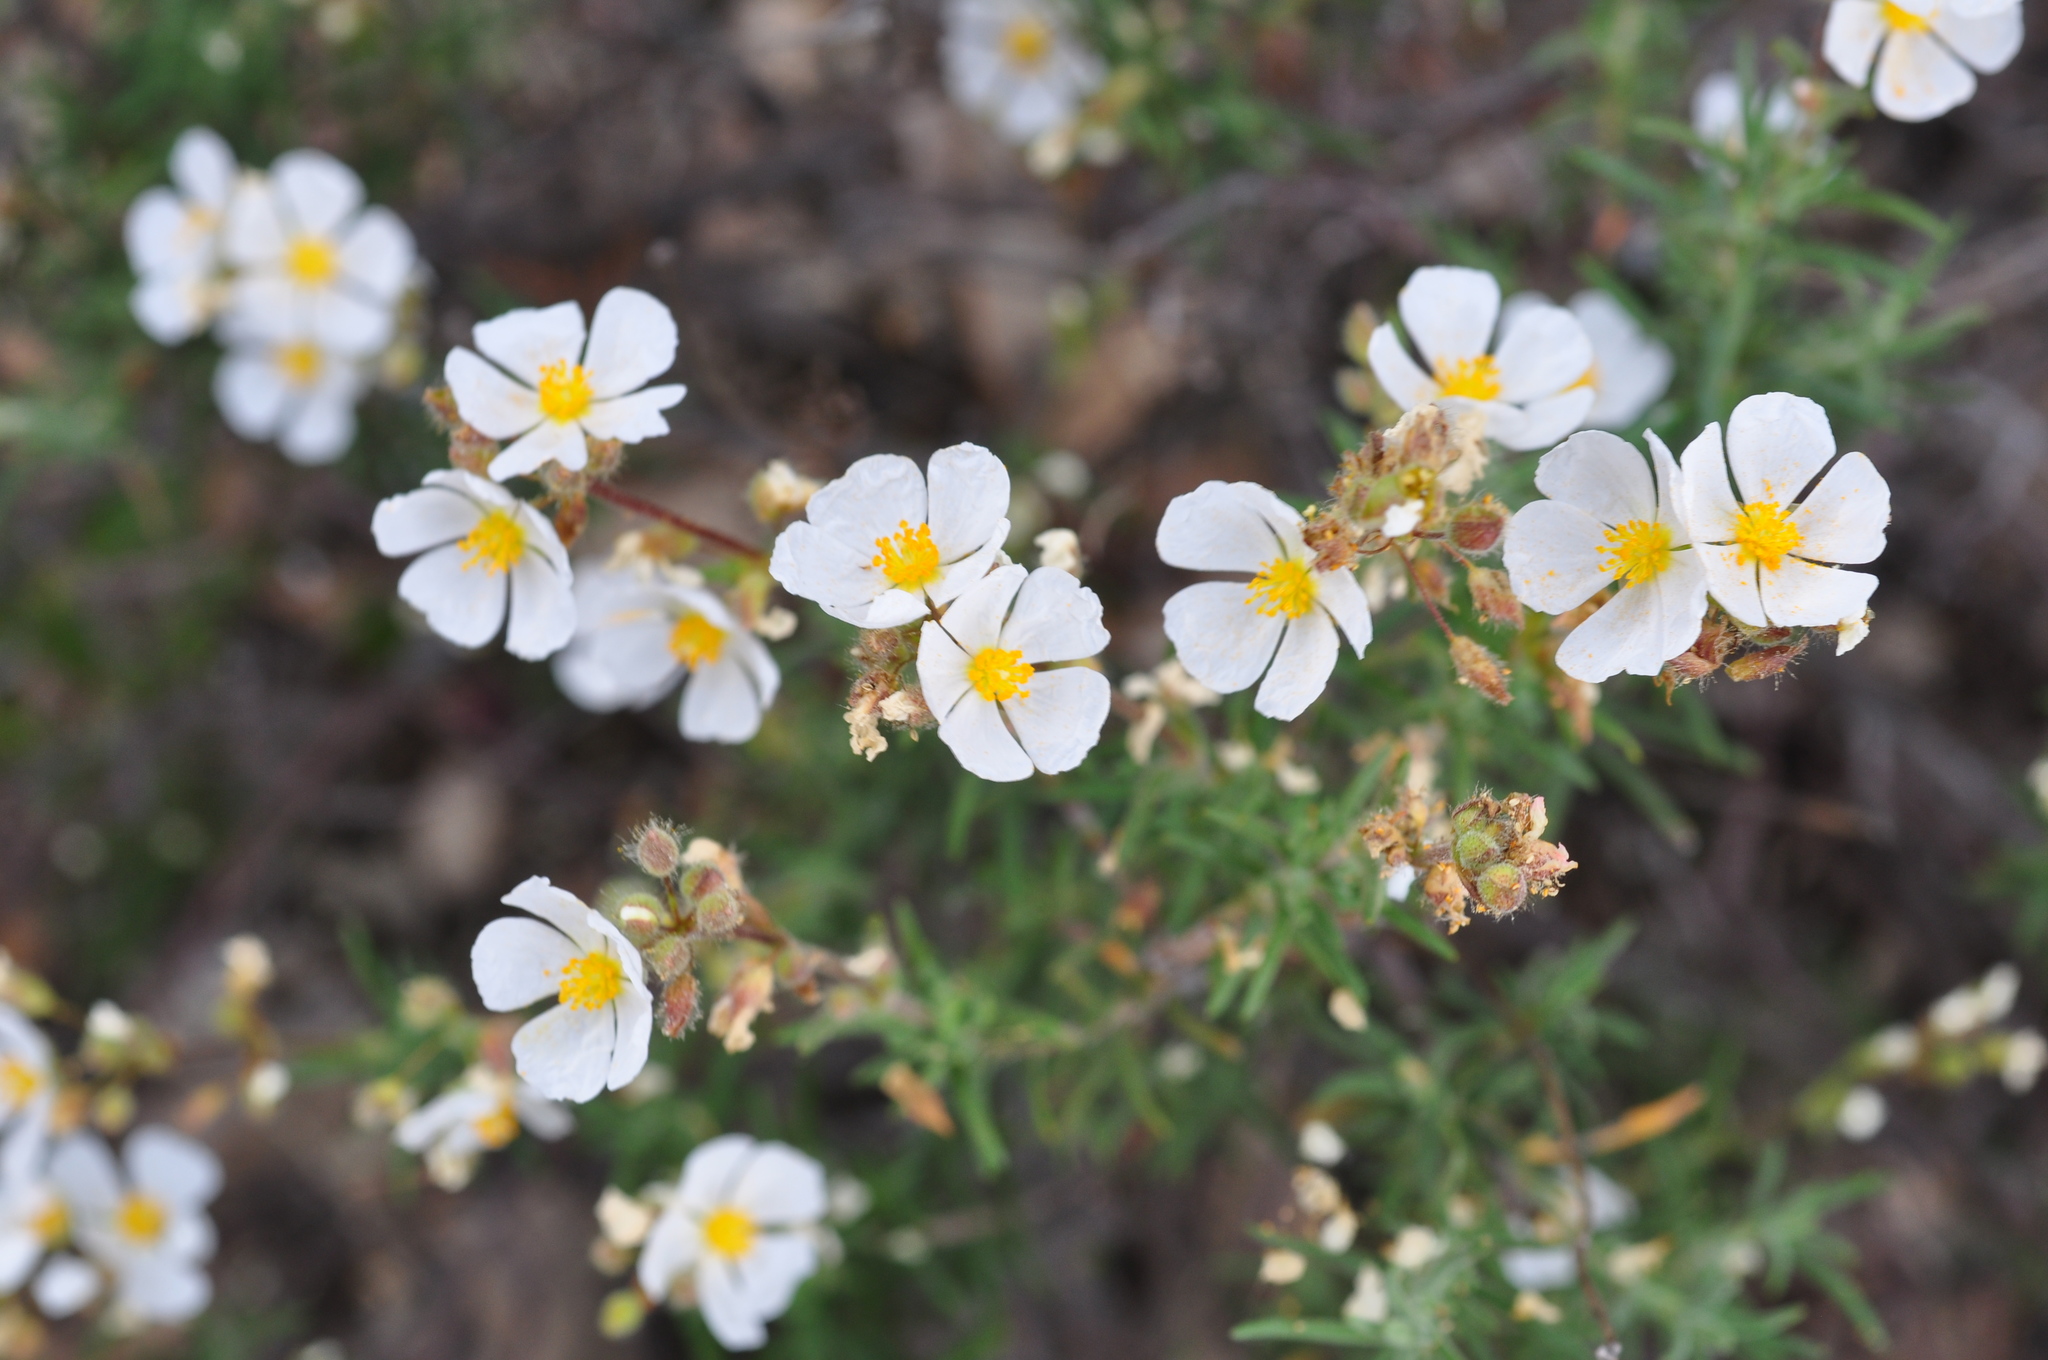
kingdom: Plantae
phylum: Tracheophyta
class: Magnoliopsida
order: Malvales
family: Cistaceae
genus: Halimium
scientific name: Halimium umbellatum
